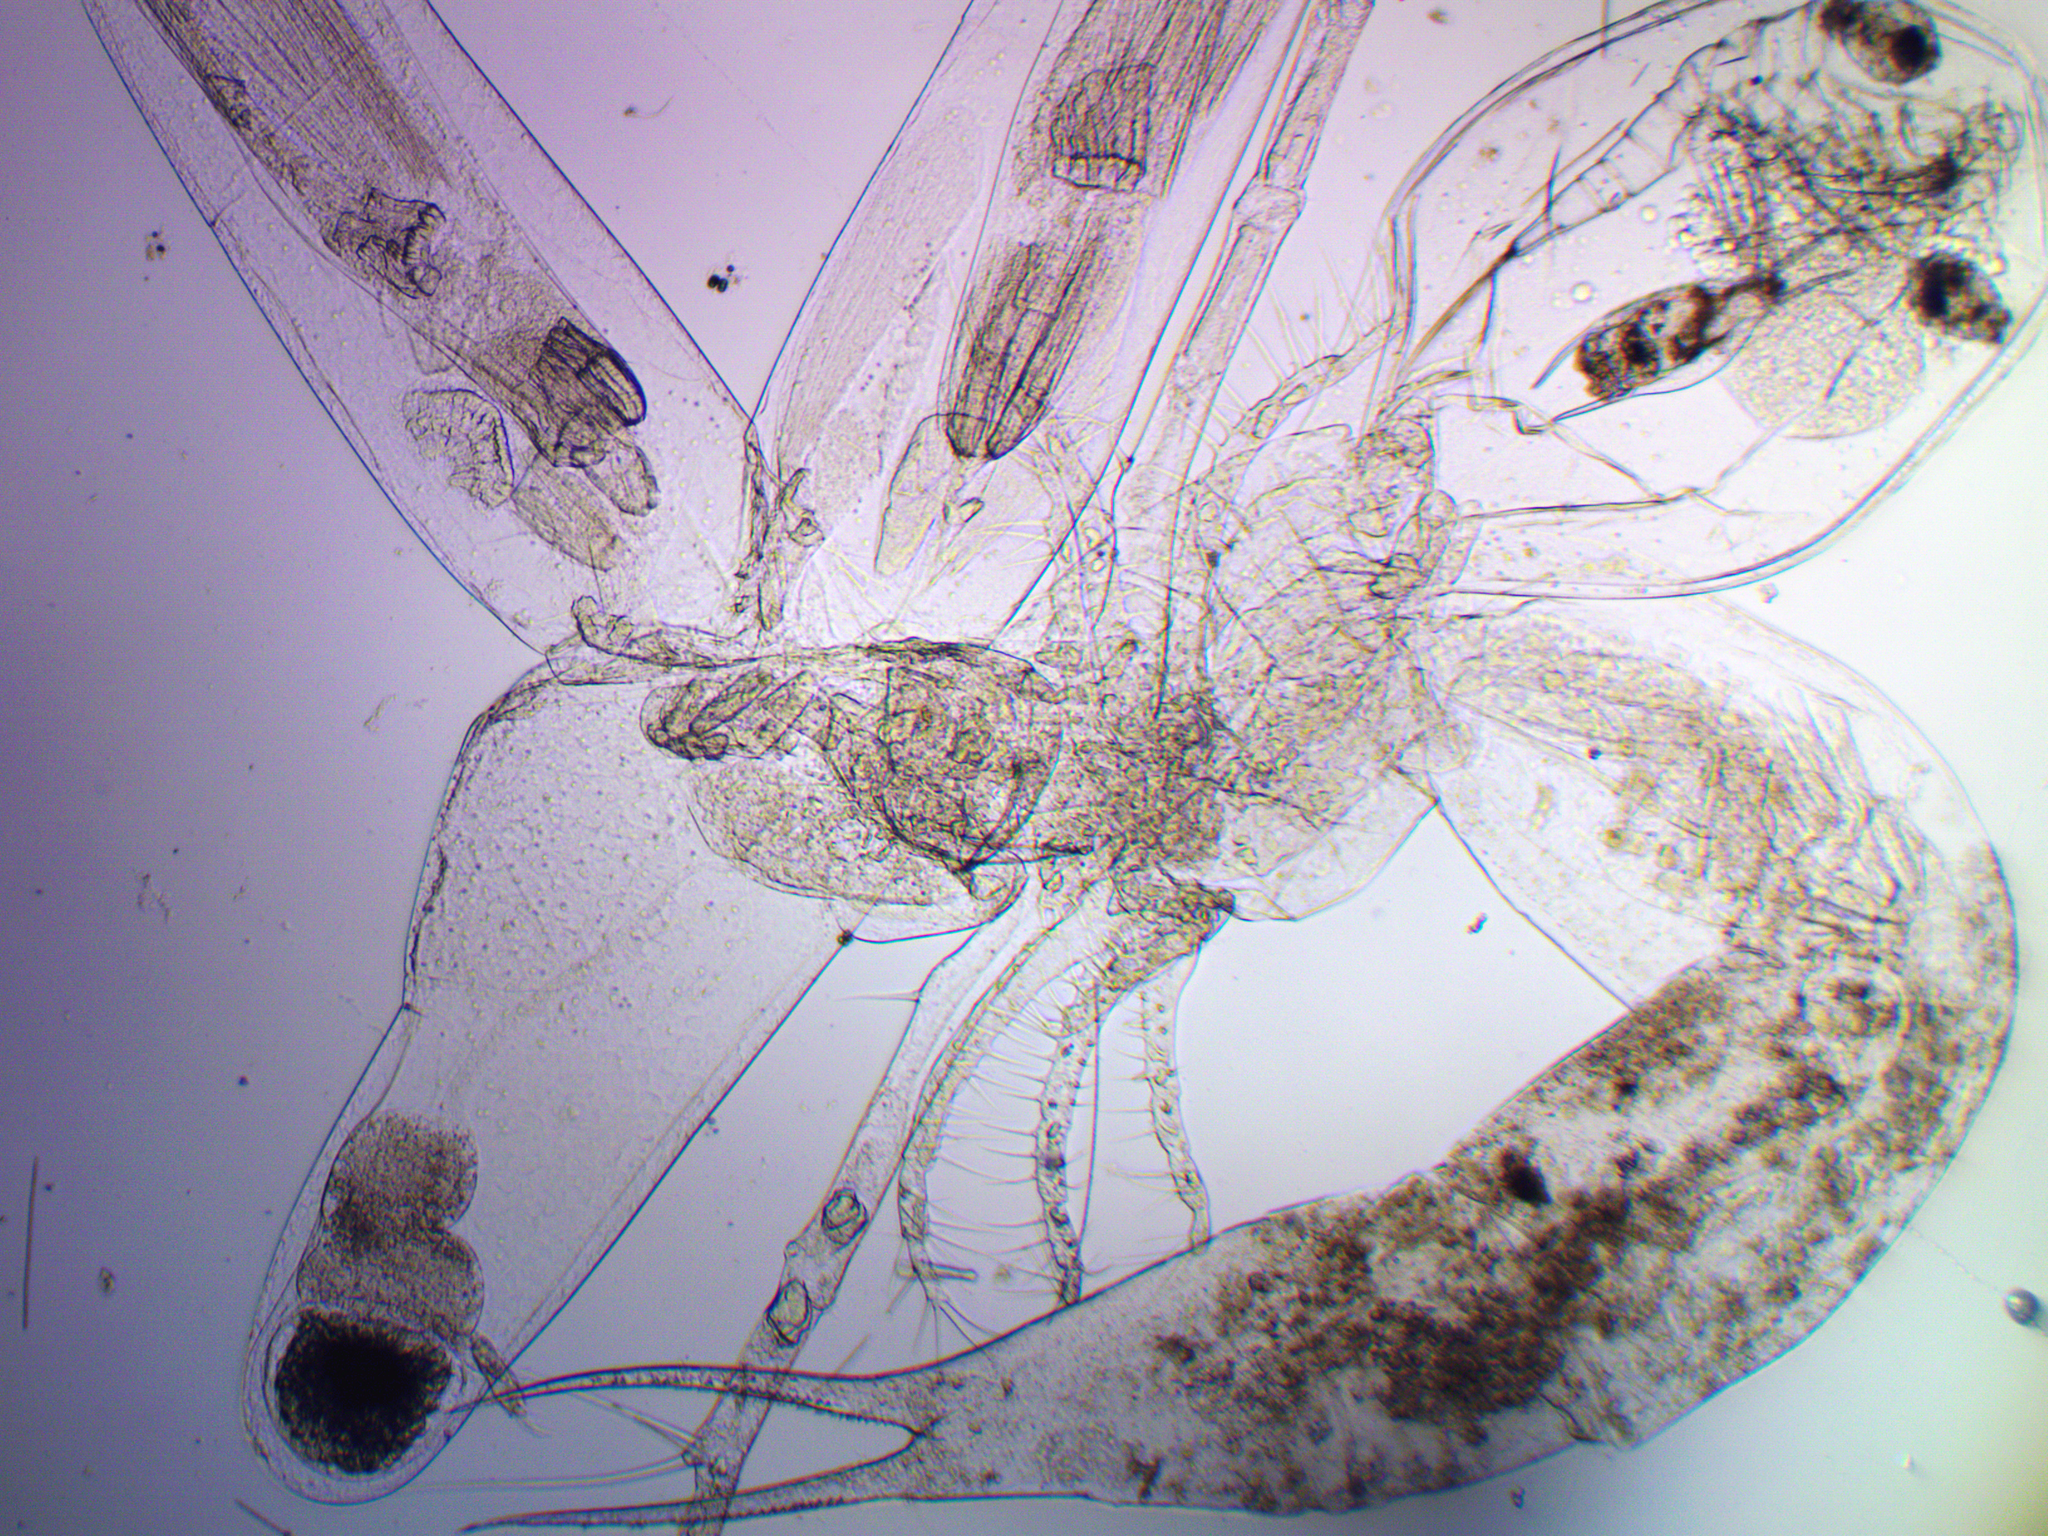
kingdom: Animalia
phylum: Arthropoda
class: Branchiopoda
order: Diplostraca
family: Leptodoridae
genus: Leptodora
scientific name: Leptodora kindti
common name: Glass waterflea
